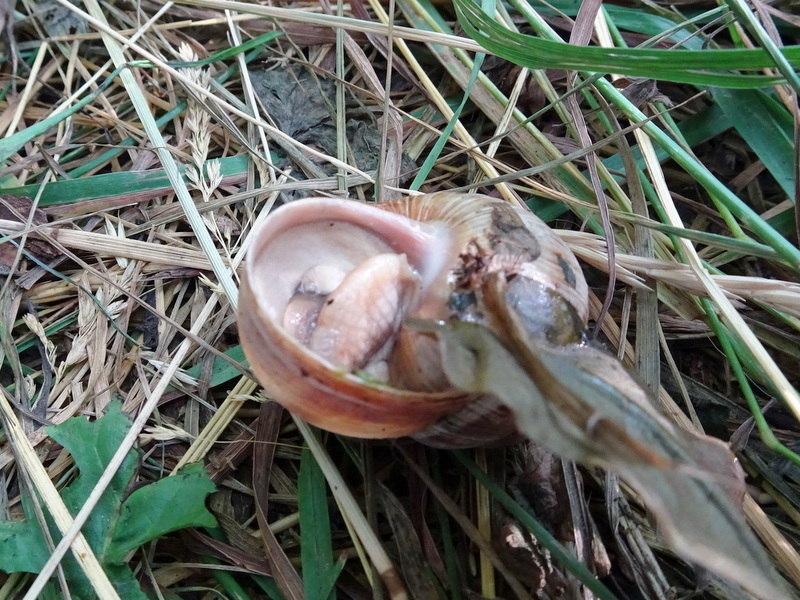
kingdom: Animalia
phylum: Mollusca
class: Gastropoda
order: Stylommatophora
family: Helicidae
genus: Helix
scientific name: Helix pomatia
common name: Roman snail
